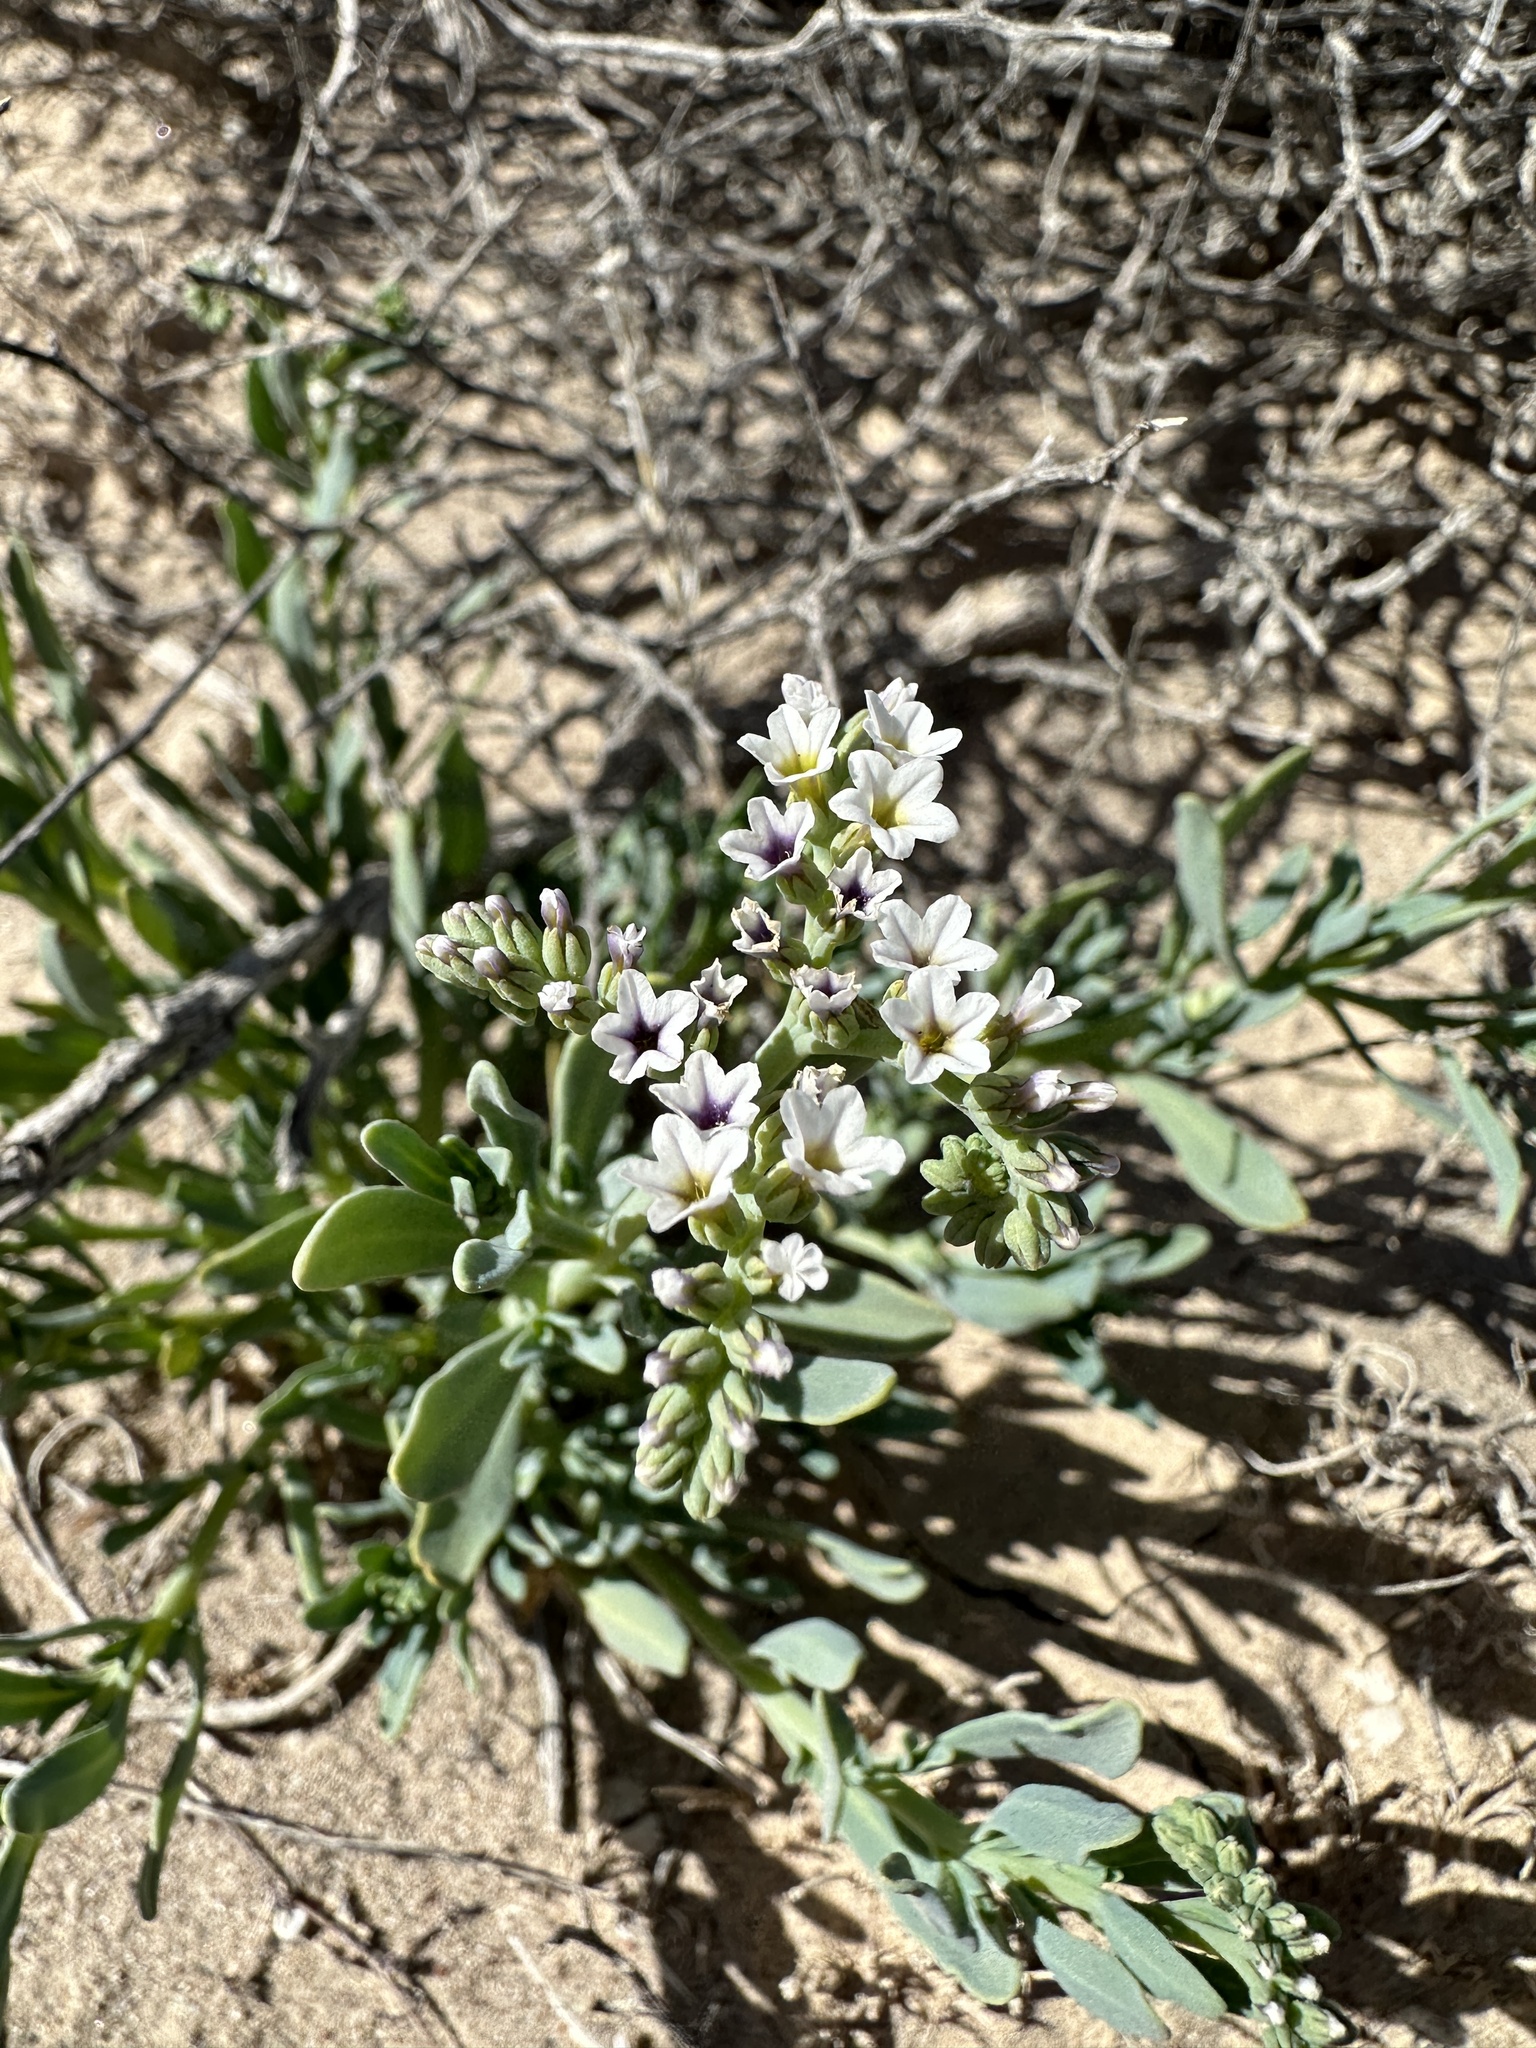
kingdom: Plantae
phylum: Tracheophyta
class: Magnoliopsida
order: Boraginales
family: Heliotropiaceae
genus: Heliotropium
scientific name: Heliotropium curassavicum
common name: Seaside heliotrope
